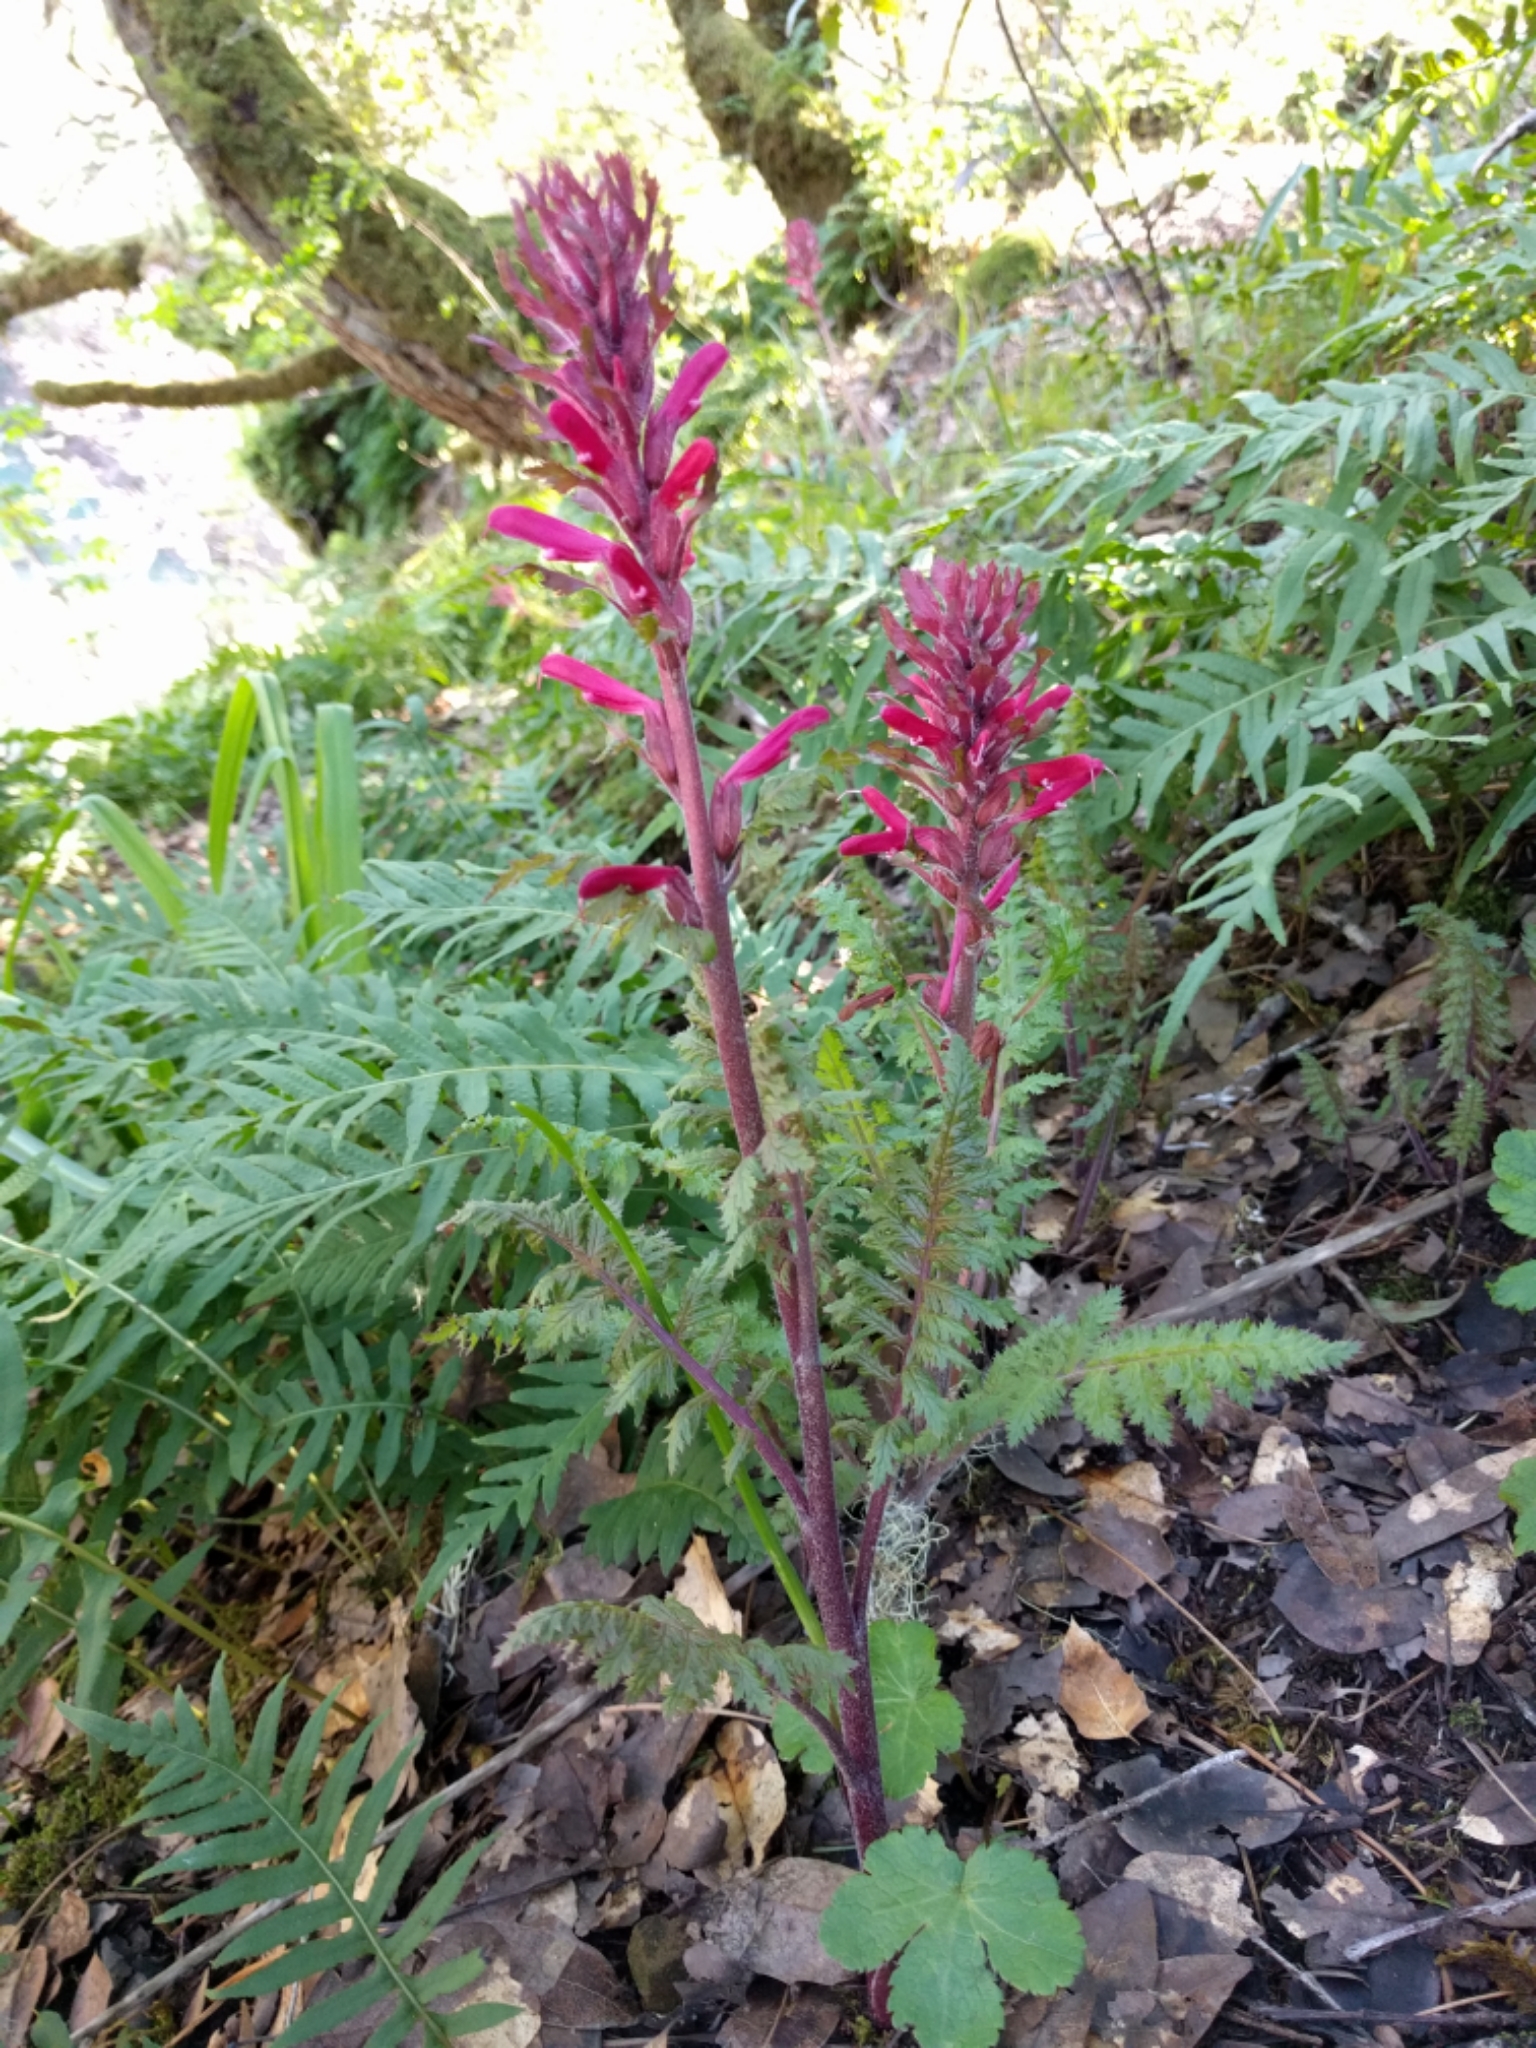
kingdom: Plantae
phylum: Tracheophyta
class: Magnoliopsida
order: Lamiales
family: Orobanchaceae
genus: Pedicularis
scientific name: Pedicularis densiflora
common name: Indian warrior
